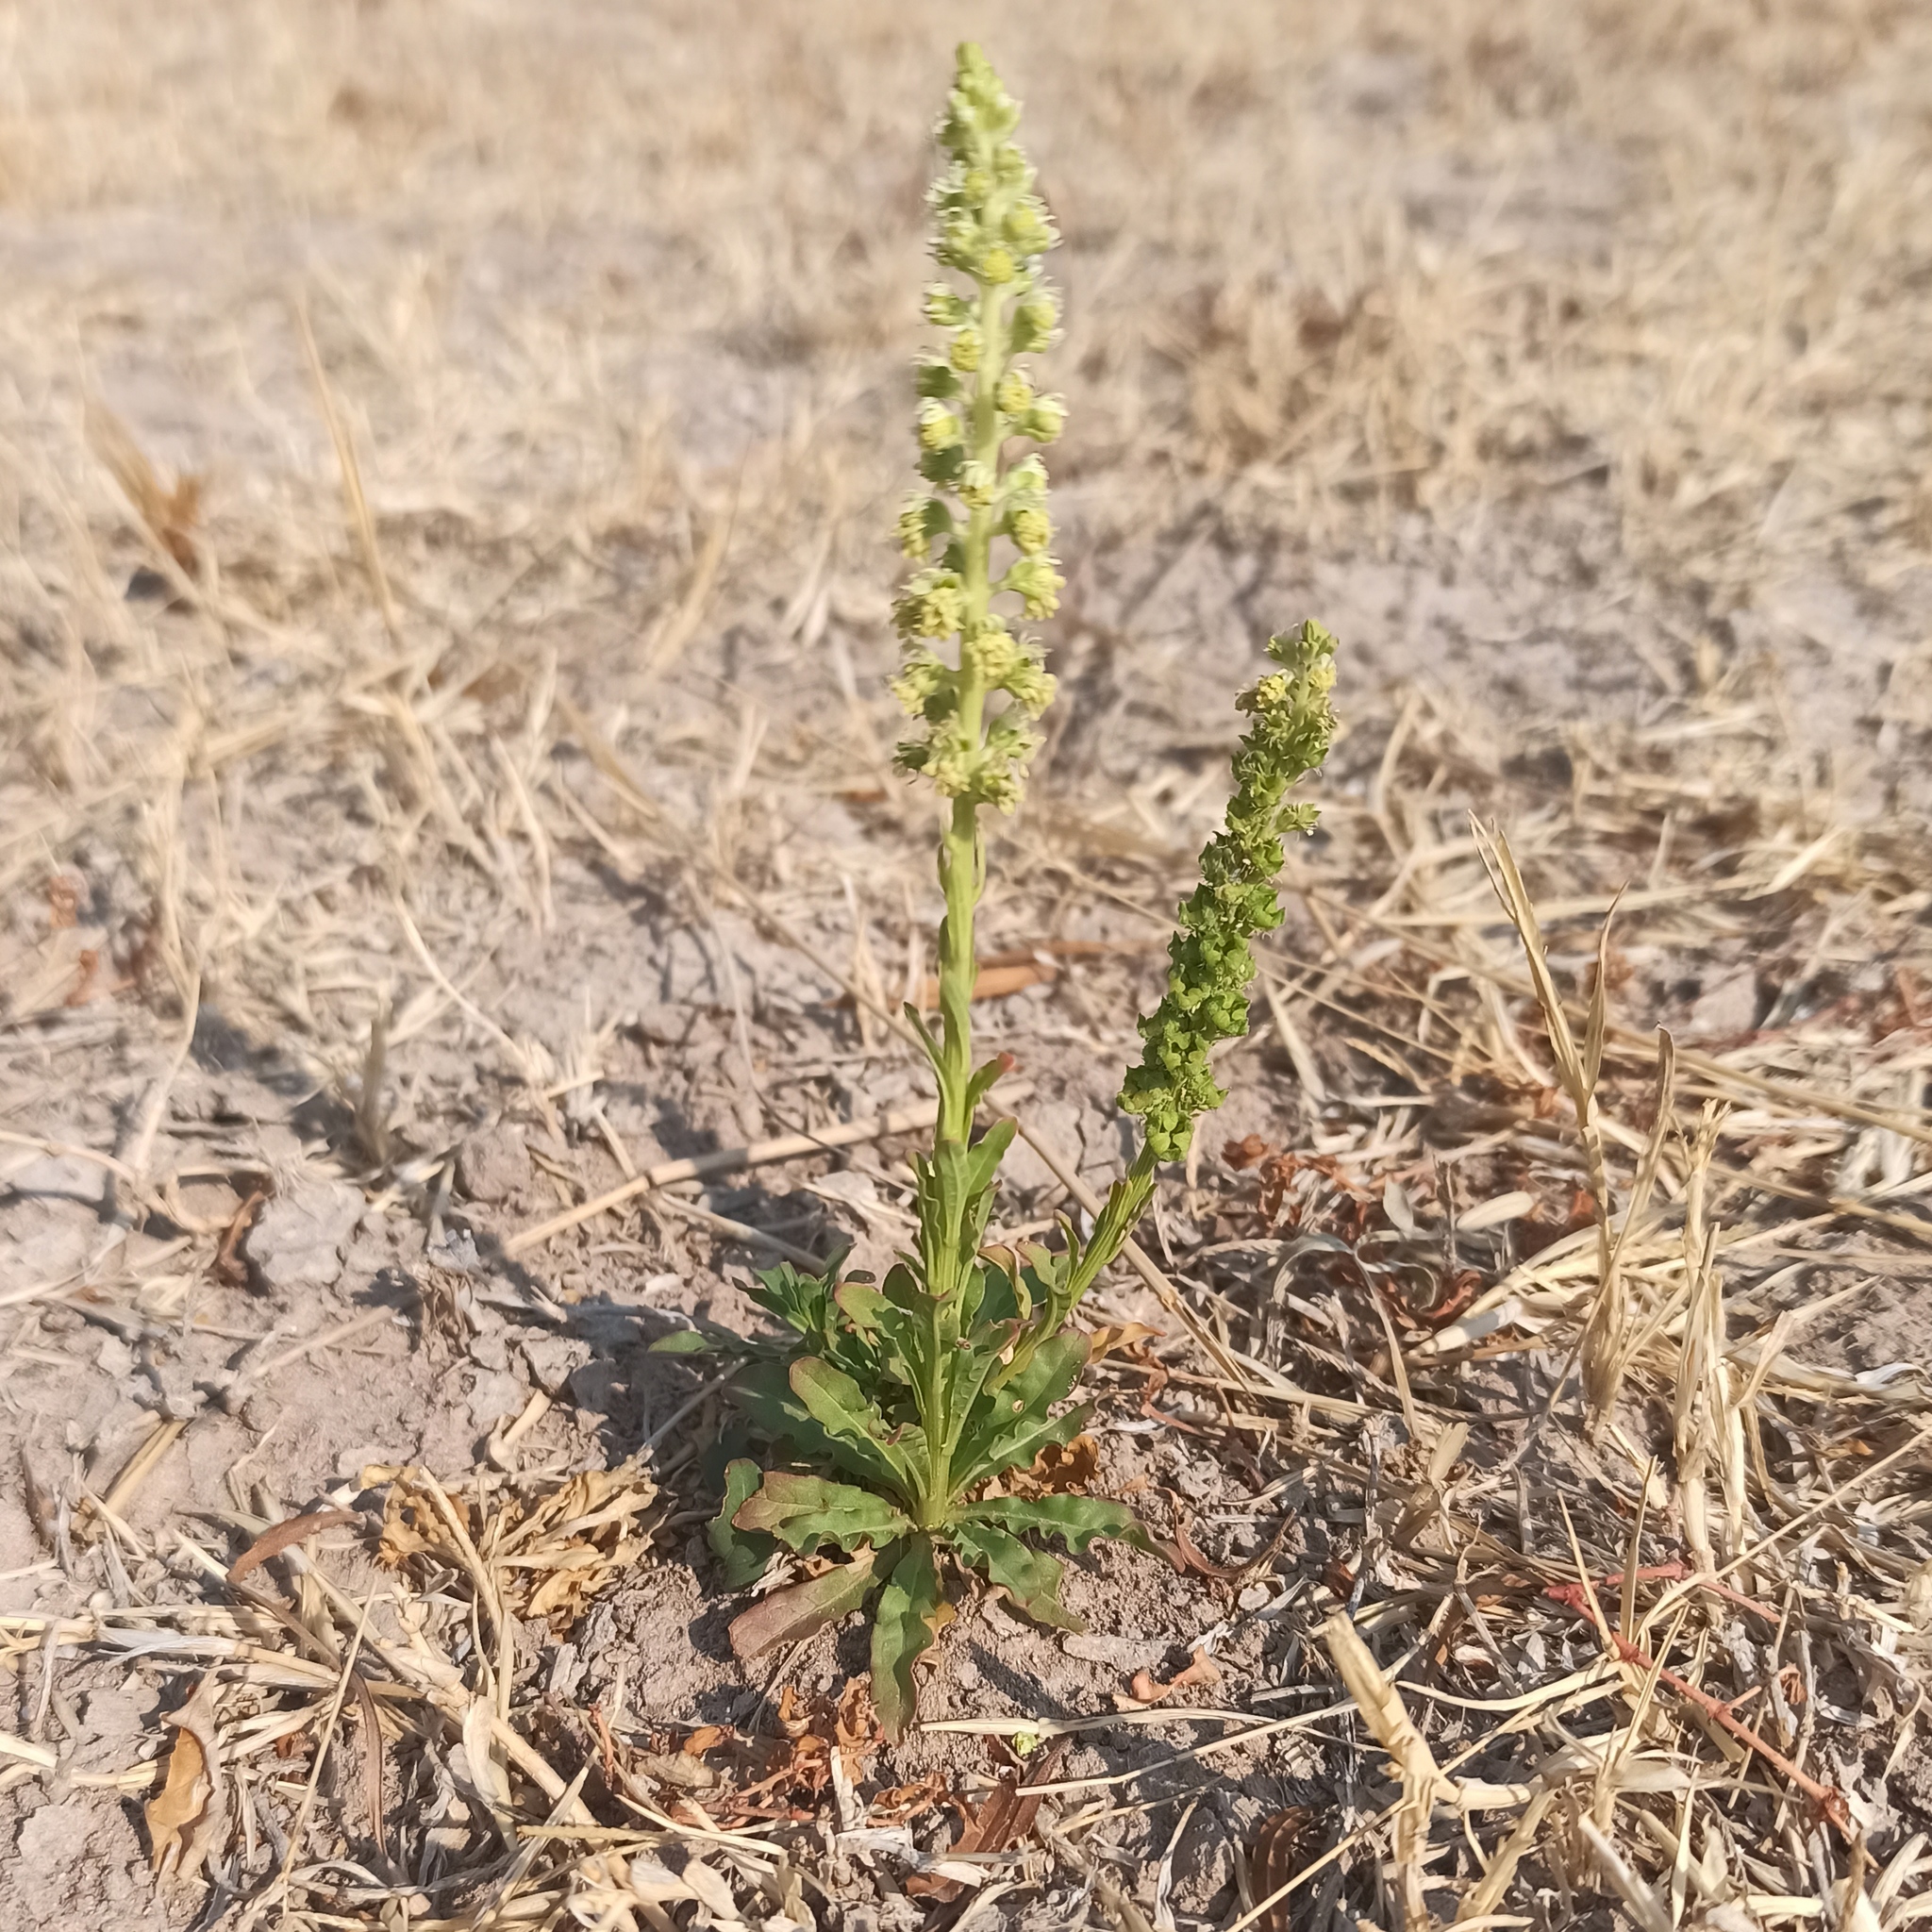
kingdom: Plantae
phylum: Tracheophyta
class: Magnoliopsida
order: Brassicales
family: Resedaceae
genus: Reseda
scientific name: Reseda luteola
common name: Weld
